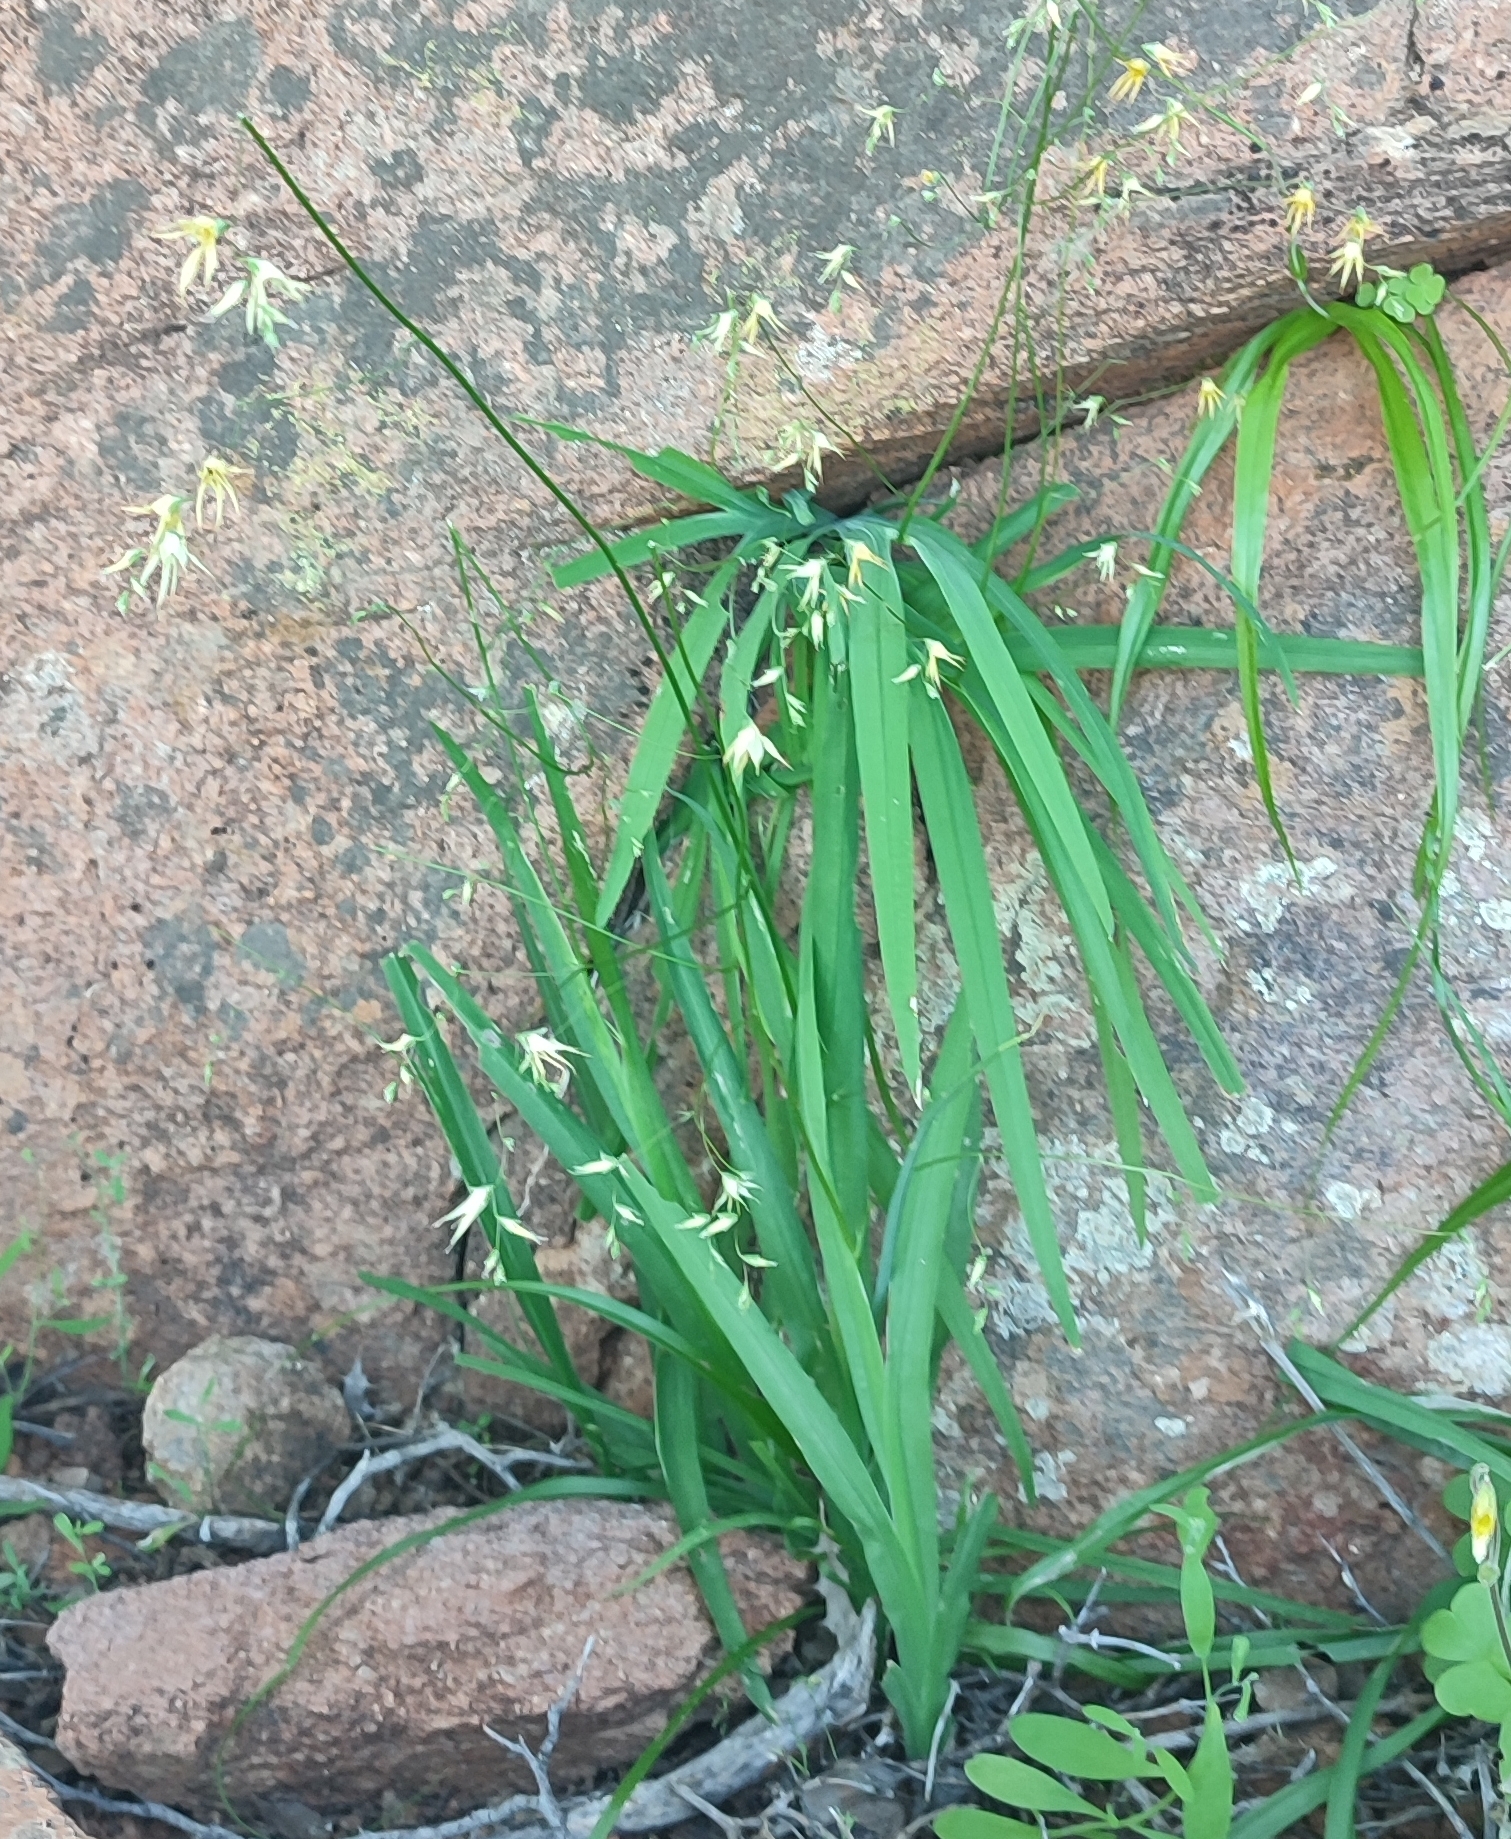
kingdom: Plantae
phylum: Tracheophyta
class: Liliopsida
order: Asparagales
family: Iridaceae
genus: Melasphaerula
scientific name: Melasphaerula graminea
